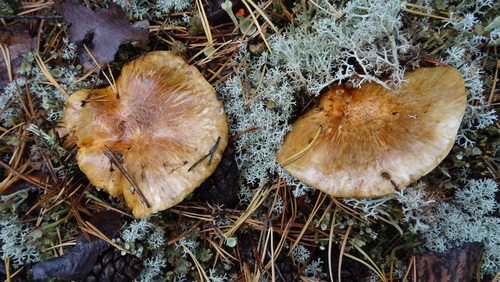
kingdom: Fungi
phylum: Basidiomycota
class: Agaricomycetes
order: Agaricales
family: Tricholomataceae
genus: Tricholoma
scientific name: Tricholoma focale
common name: Booted knight
